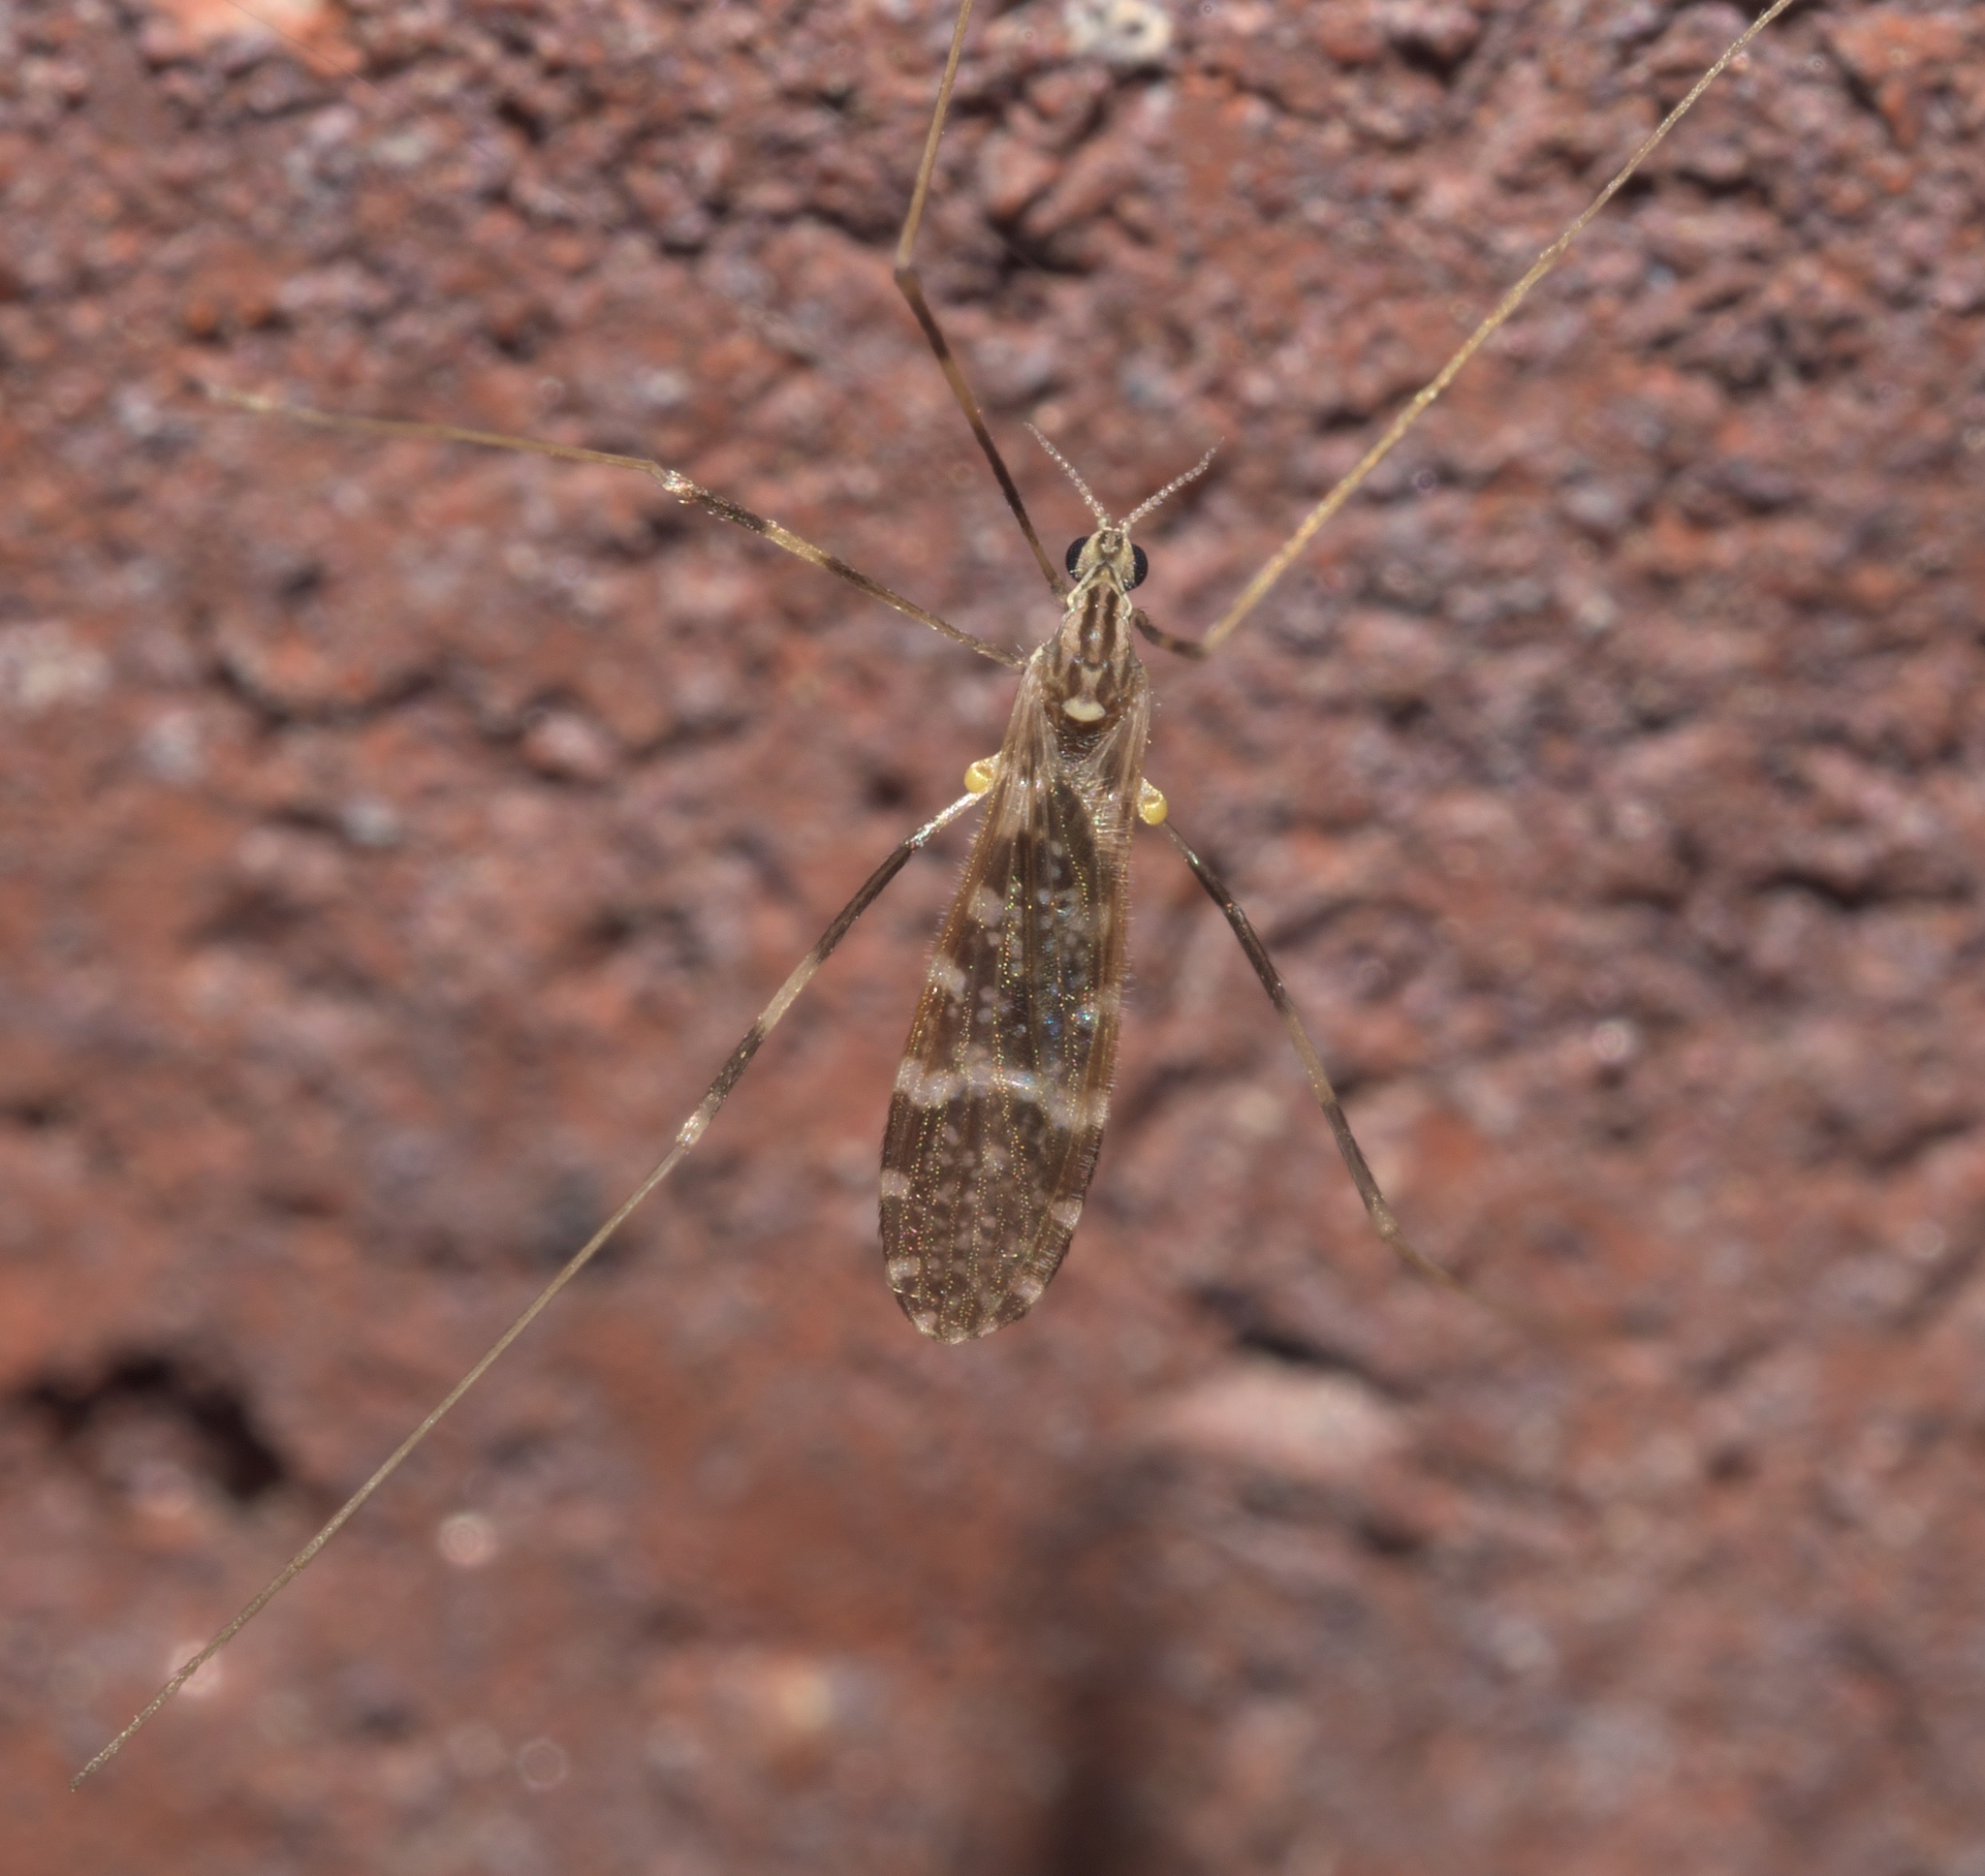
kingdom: Animalia
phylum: Arthropoda
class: Insecta
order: Diptera
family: Limoniidae
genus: Erioptera
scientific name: Erioptera caliptera
